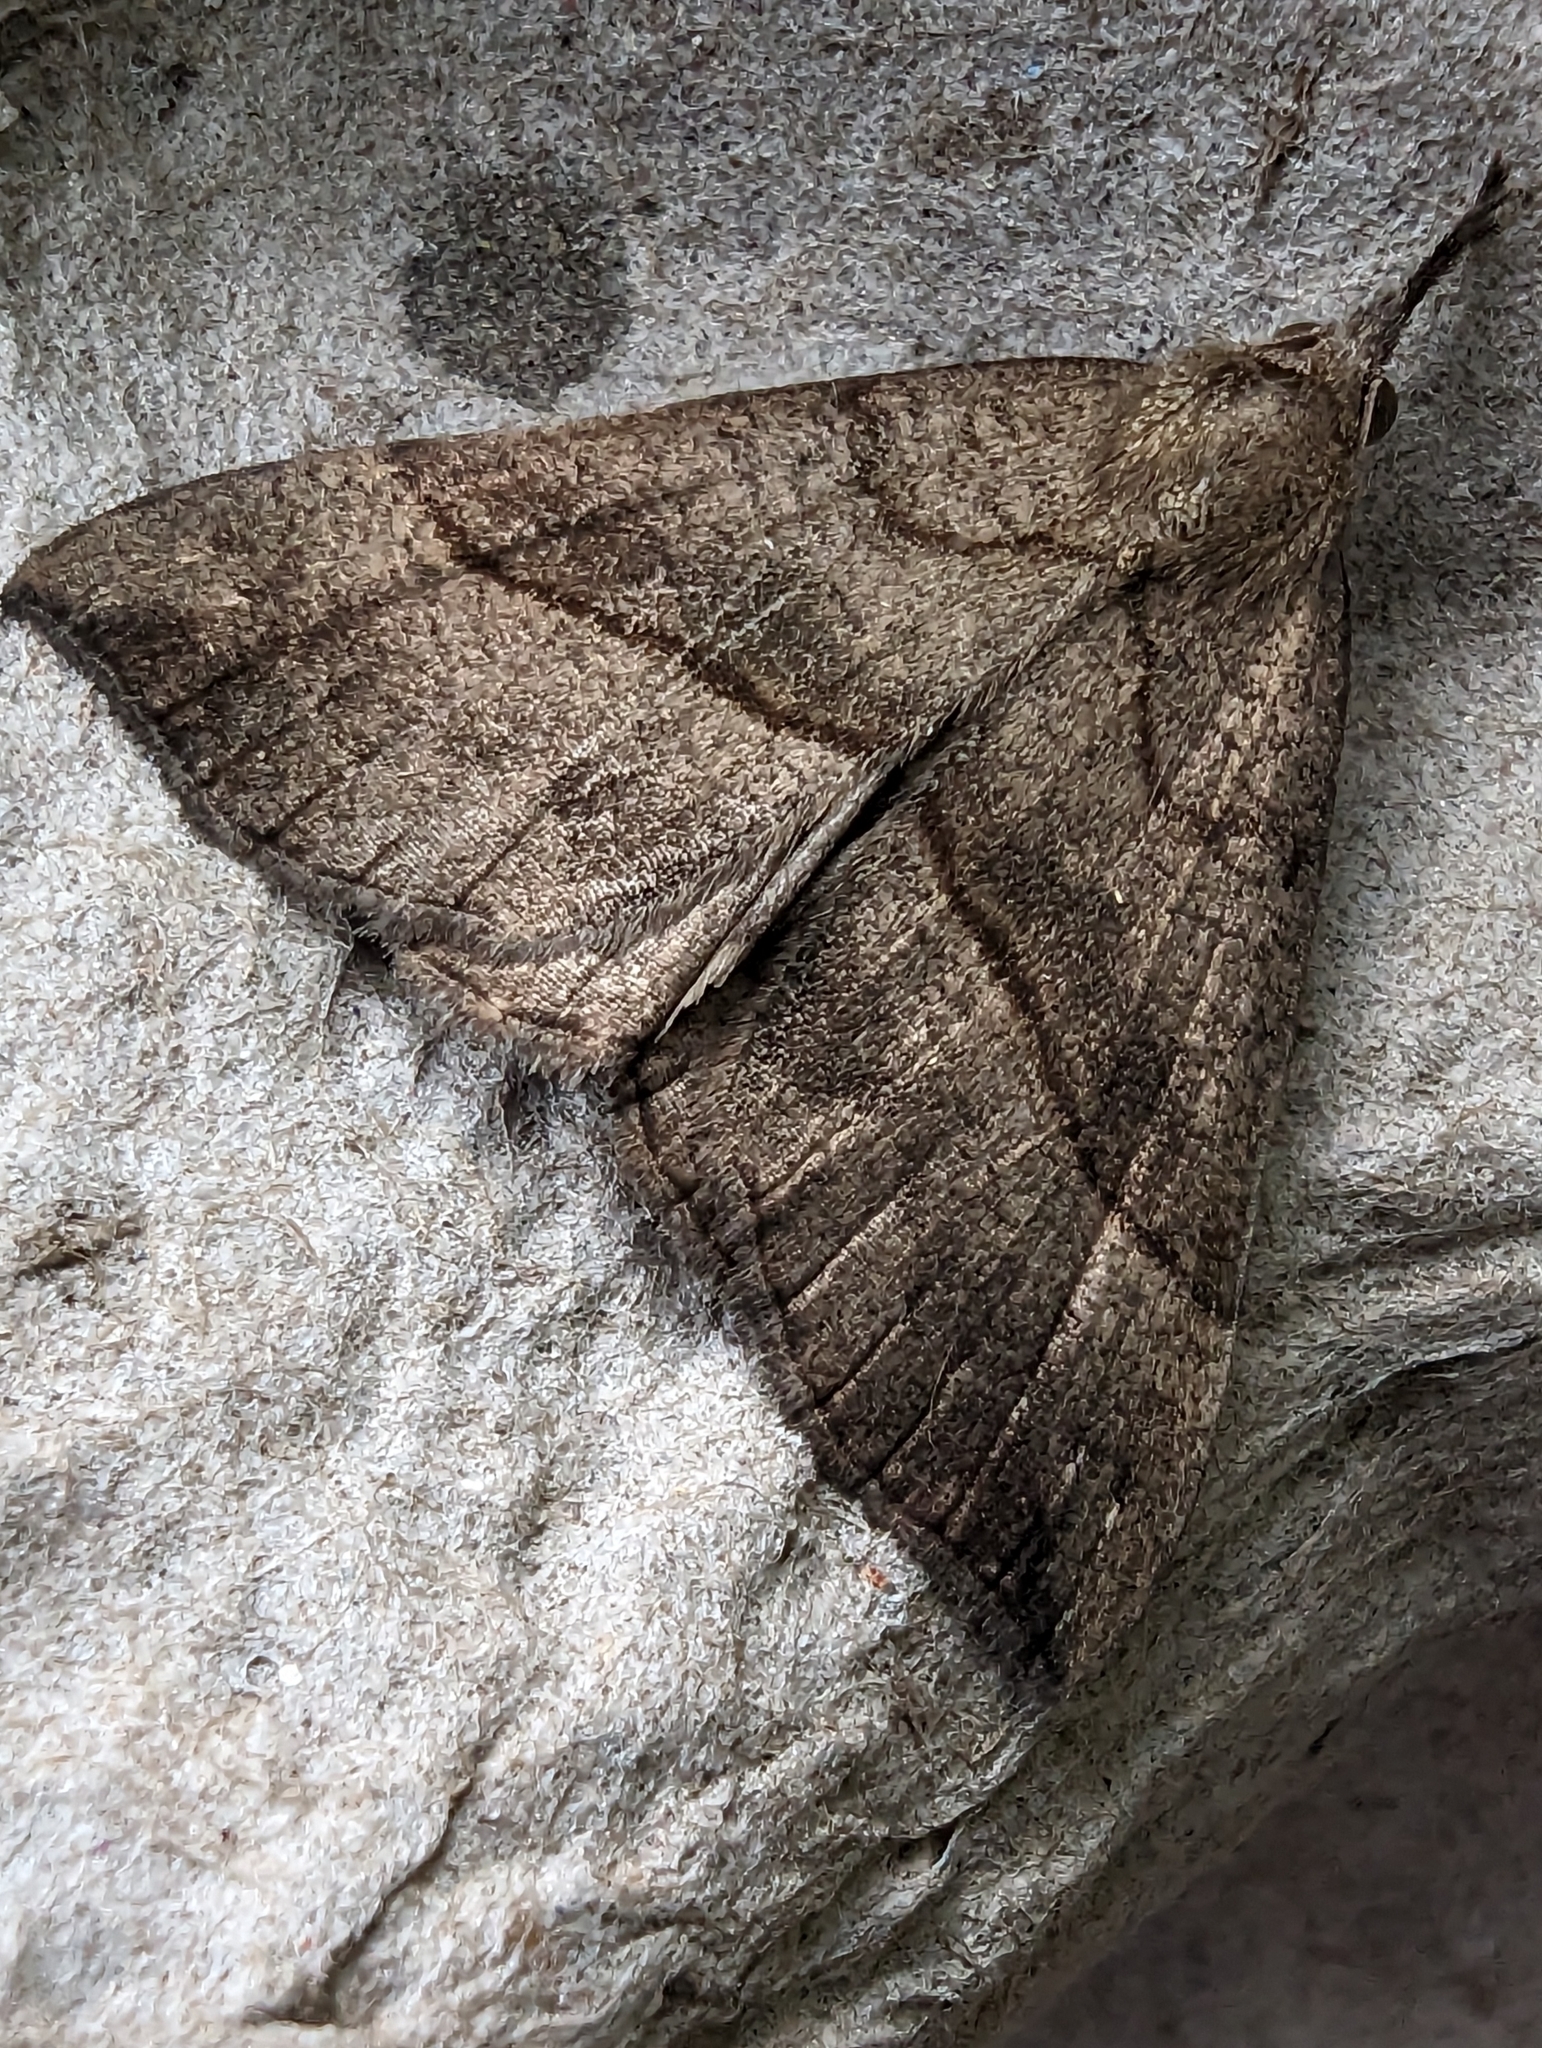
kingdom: Animalia
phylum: Arthropoda
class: Insecta
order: Lepidoptera
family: Erebidae
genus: Hypena
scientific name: Hypena proboscidalis
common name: Snout
